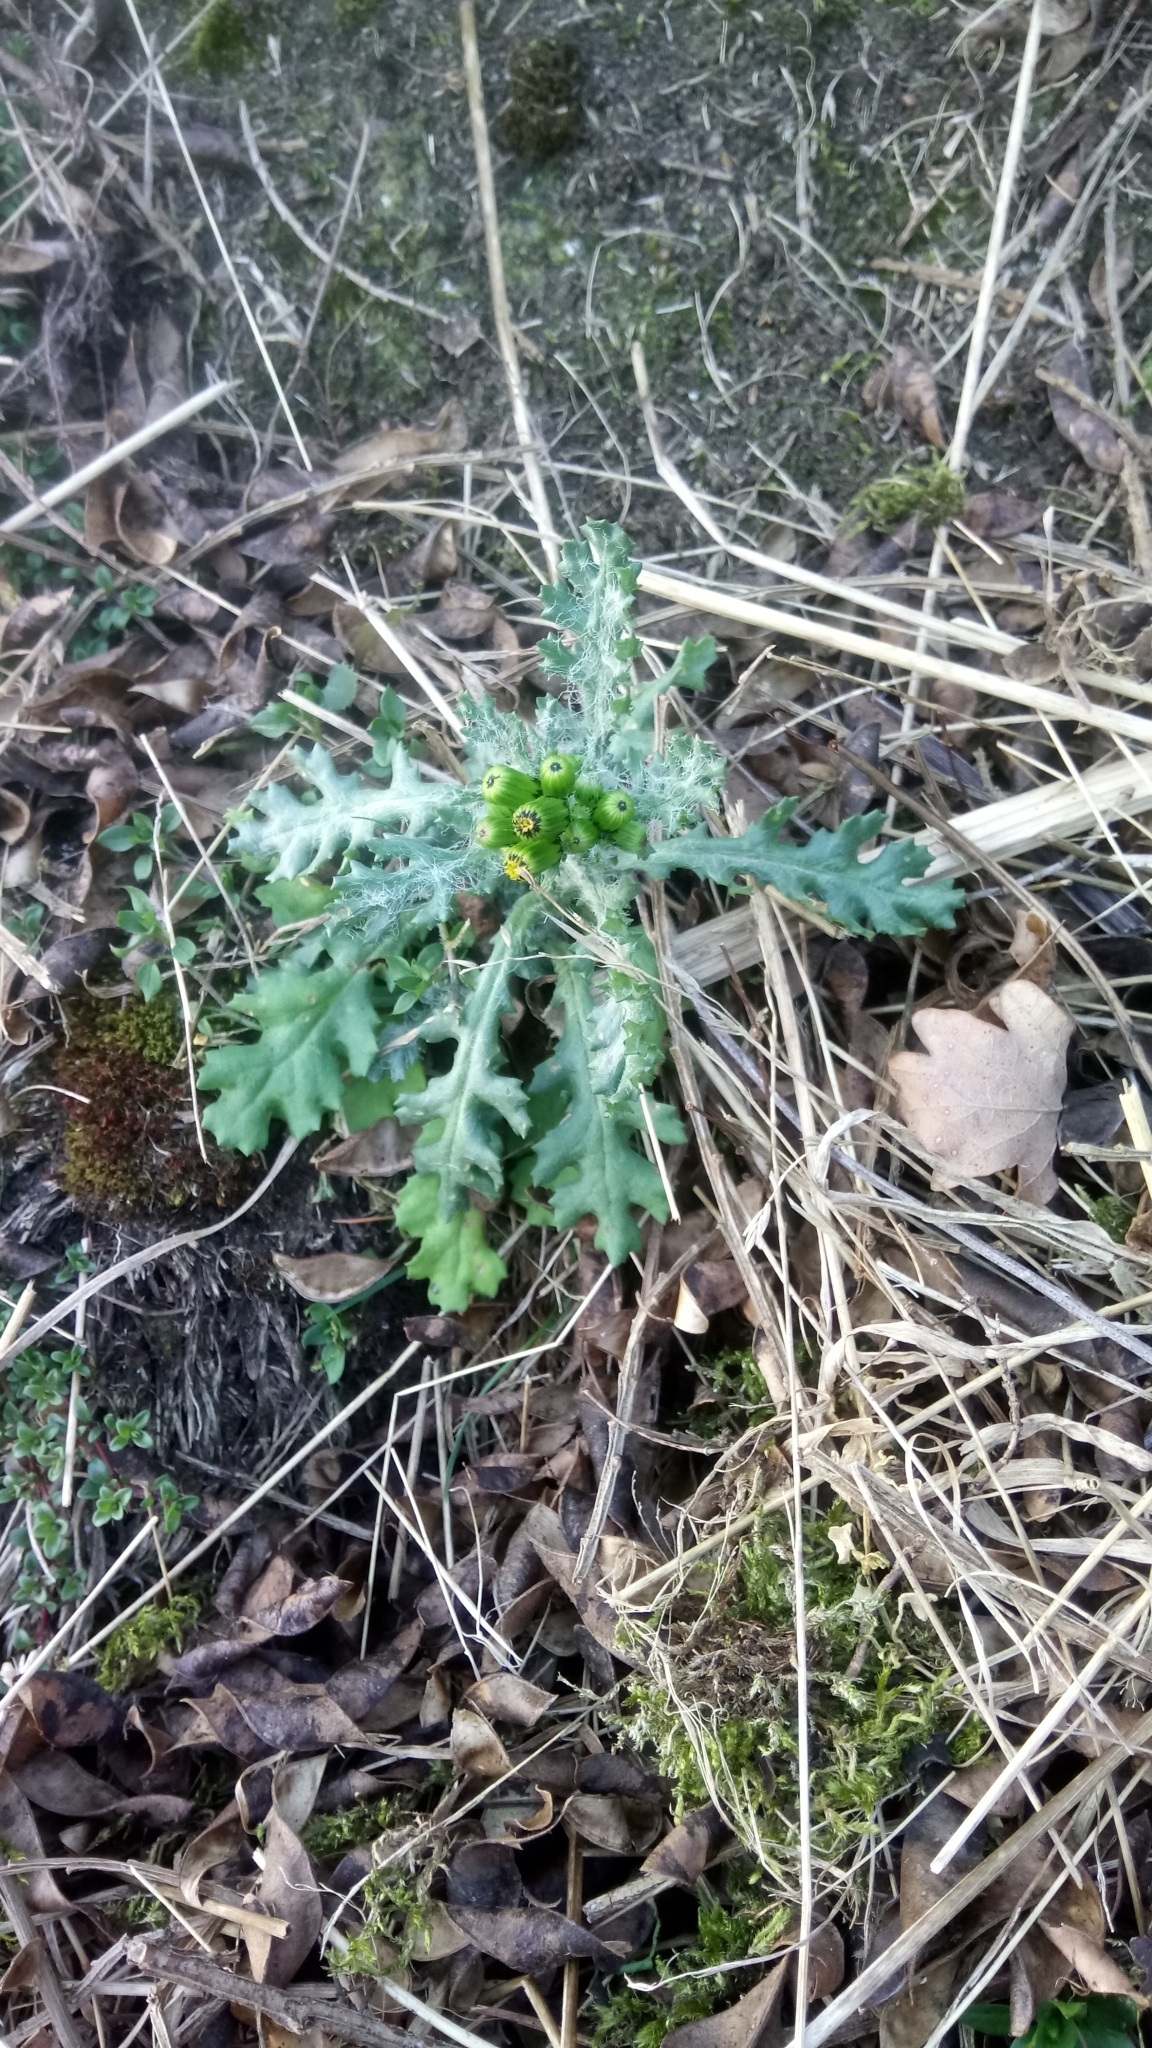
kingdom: Plantae
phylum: Tracheophyta
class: Magnoliopsida
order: Asterales
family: Asteraceae
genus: Senecio
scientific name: Senecio vulgaris
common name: Old-man-in-the-spring
